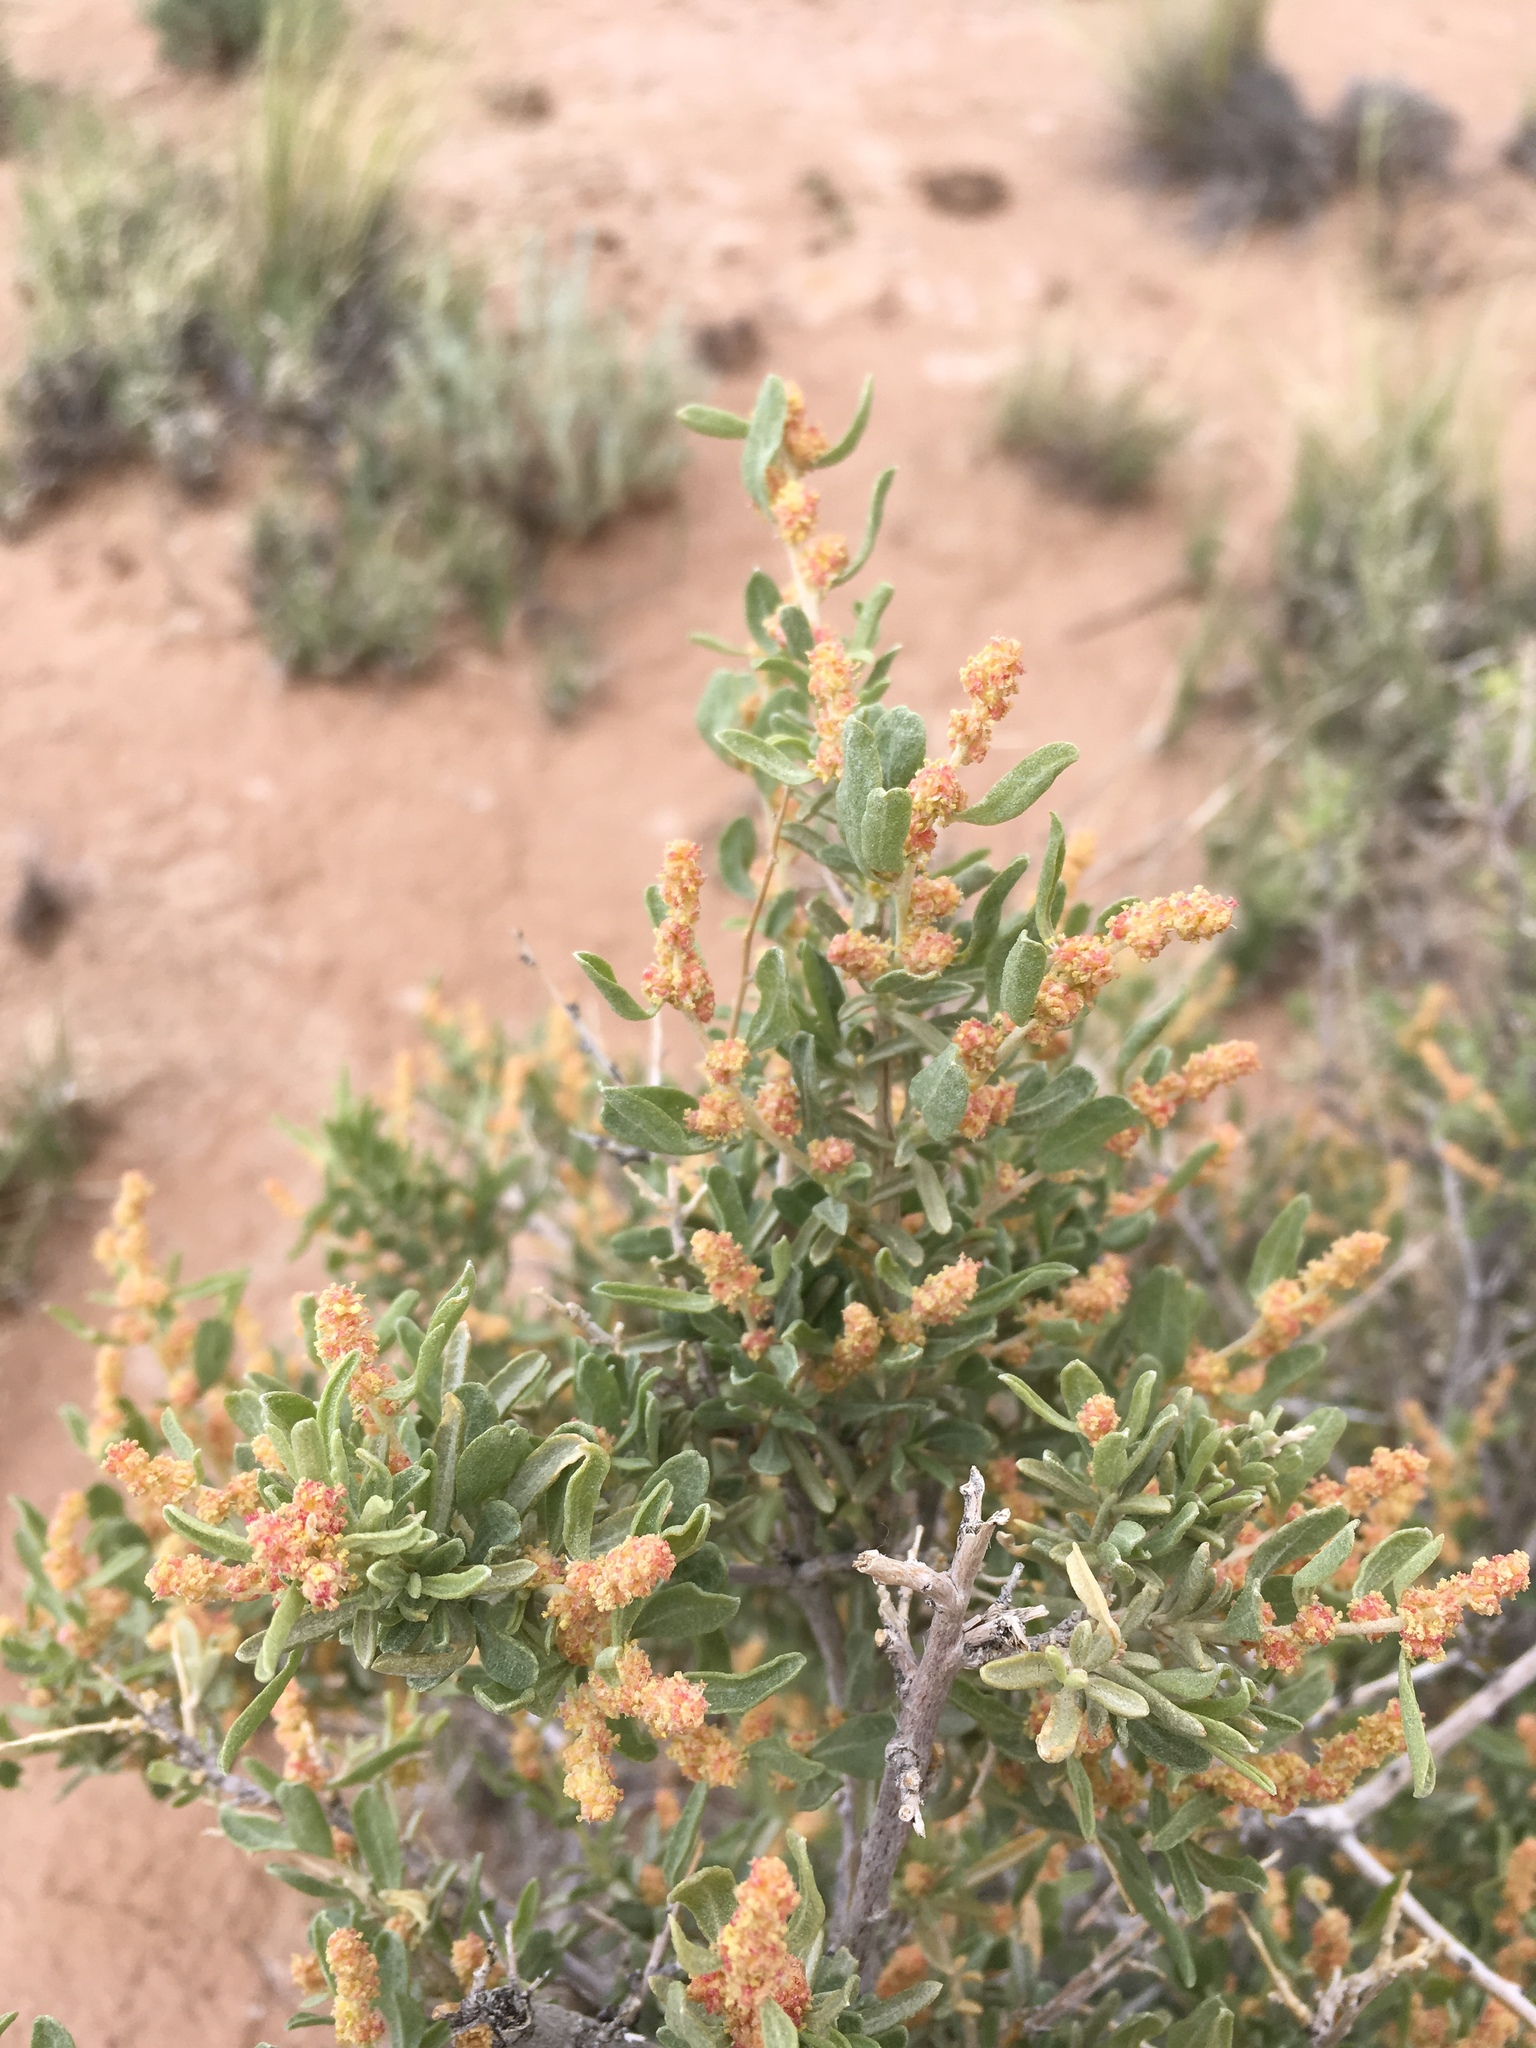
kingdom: Plantae
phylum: Tracheophyta
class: Magnoliopsida
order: Caryophyllales
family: Amaranthaceae
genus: Atriplex
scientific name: Atriplex canescens
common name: Four-wing saltbush
